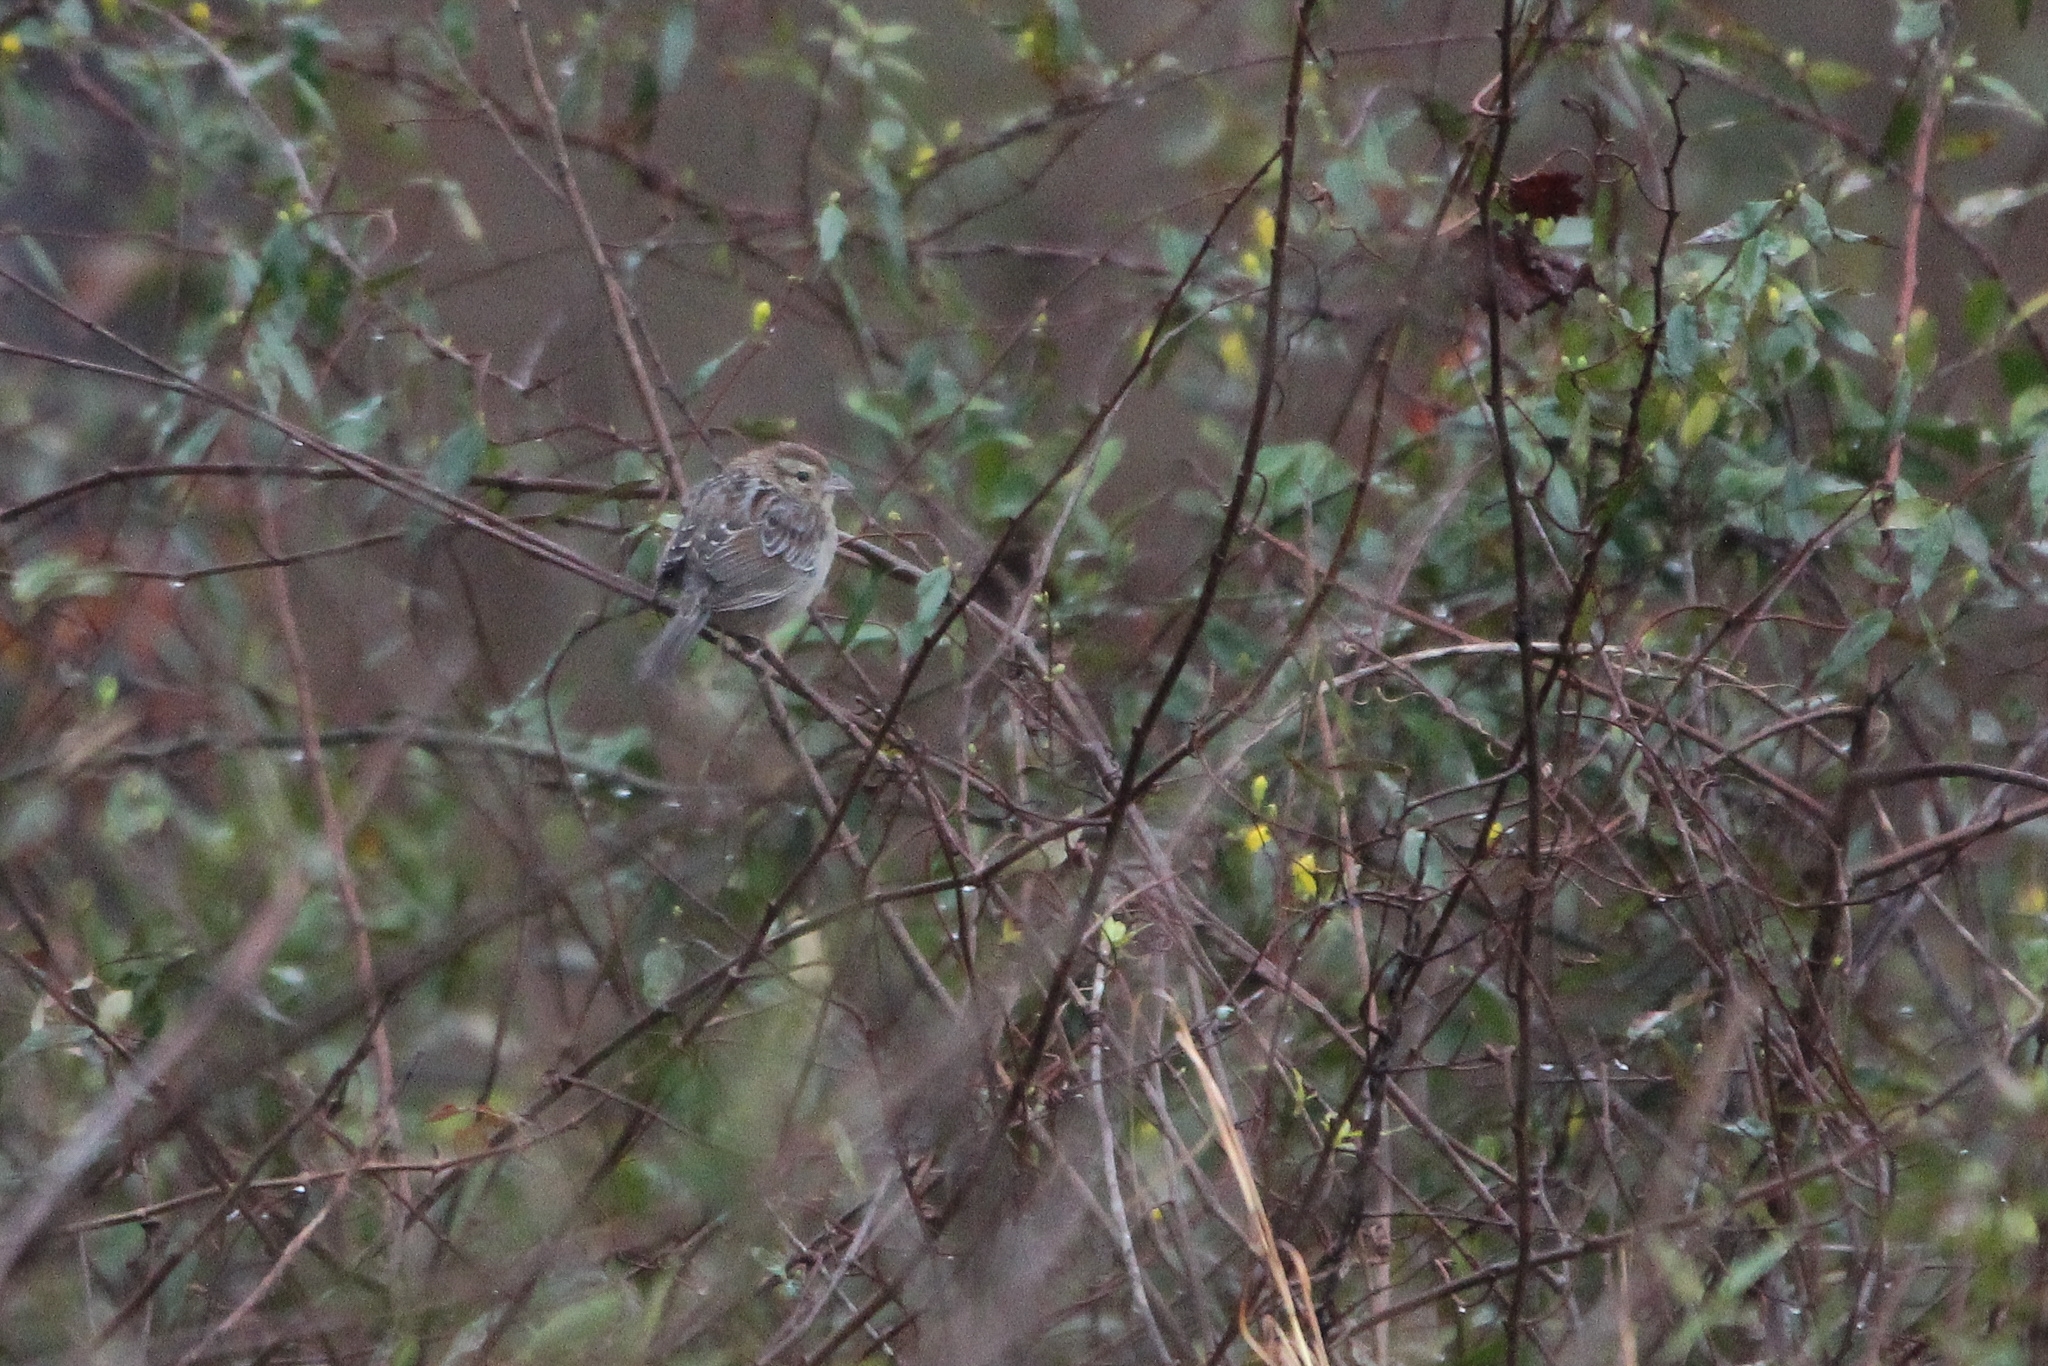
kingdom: Animalia
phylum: Chordata
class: Aves
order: Passeriformes
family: Passerellidae
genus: Peucaea
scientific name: Peucaea aestivalis
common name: Bachman's sparrow
